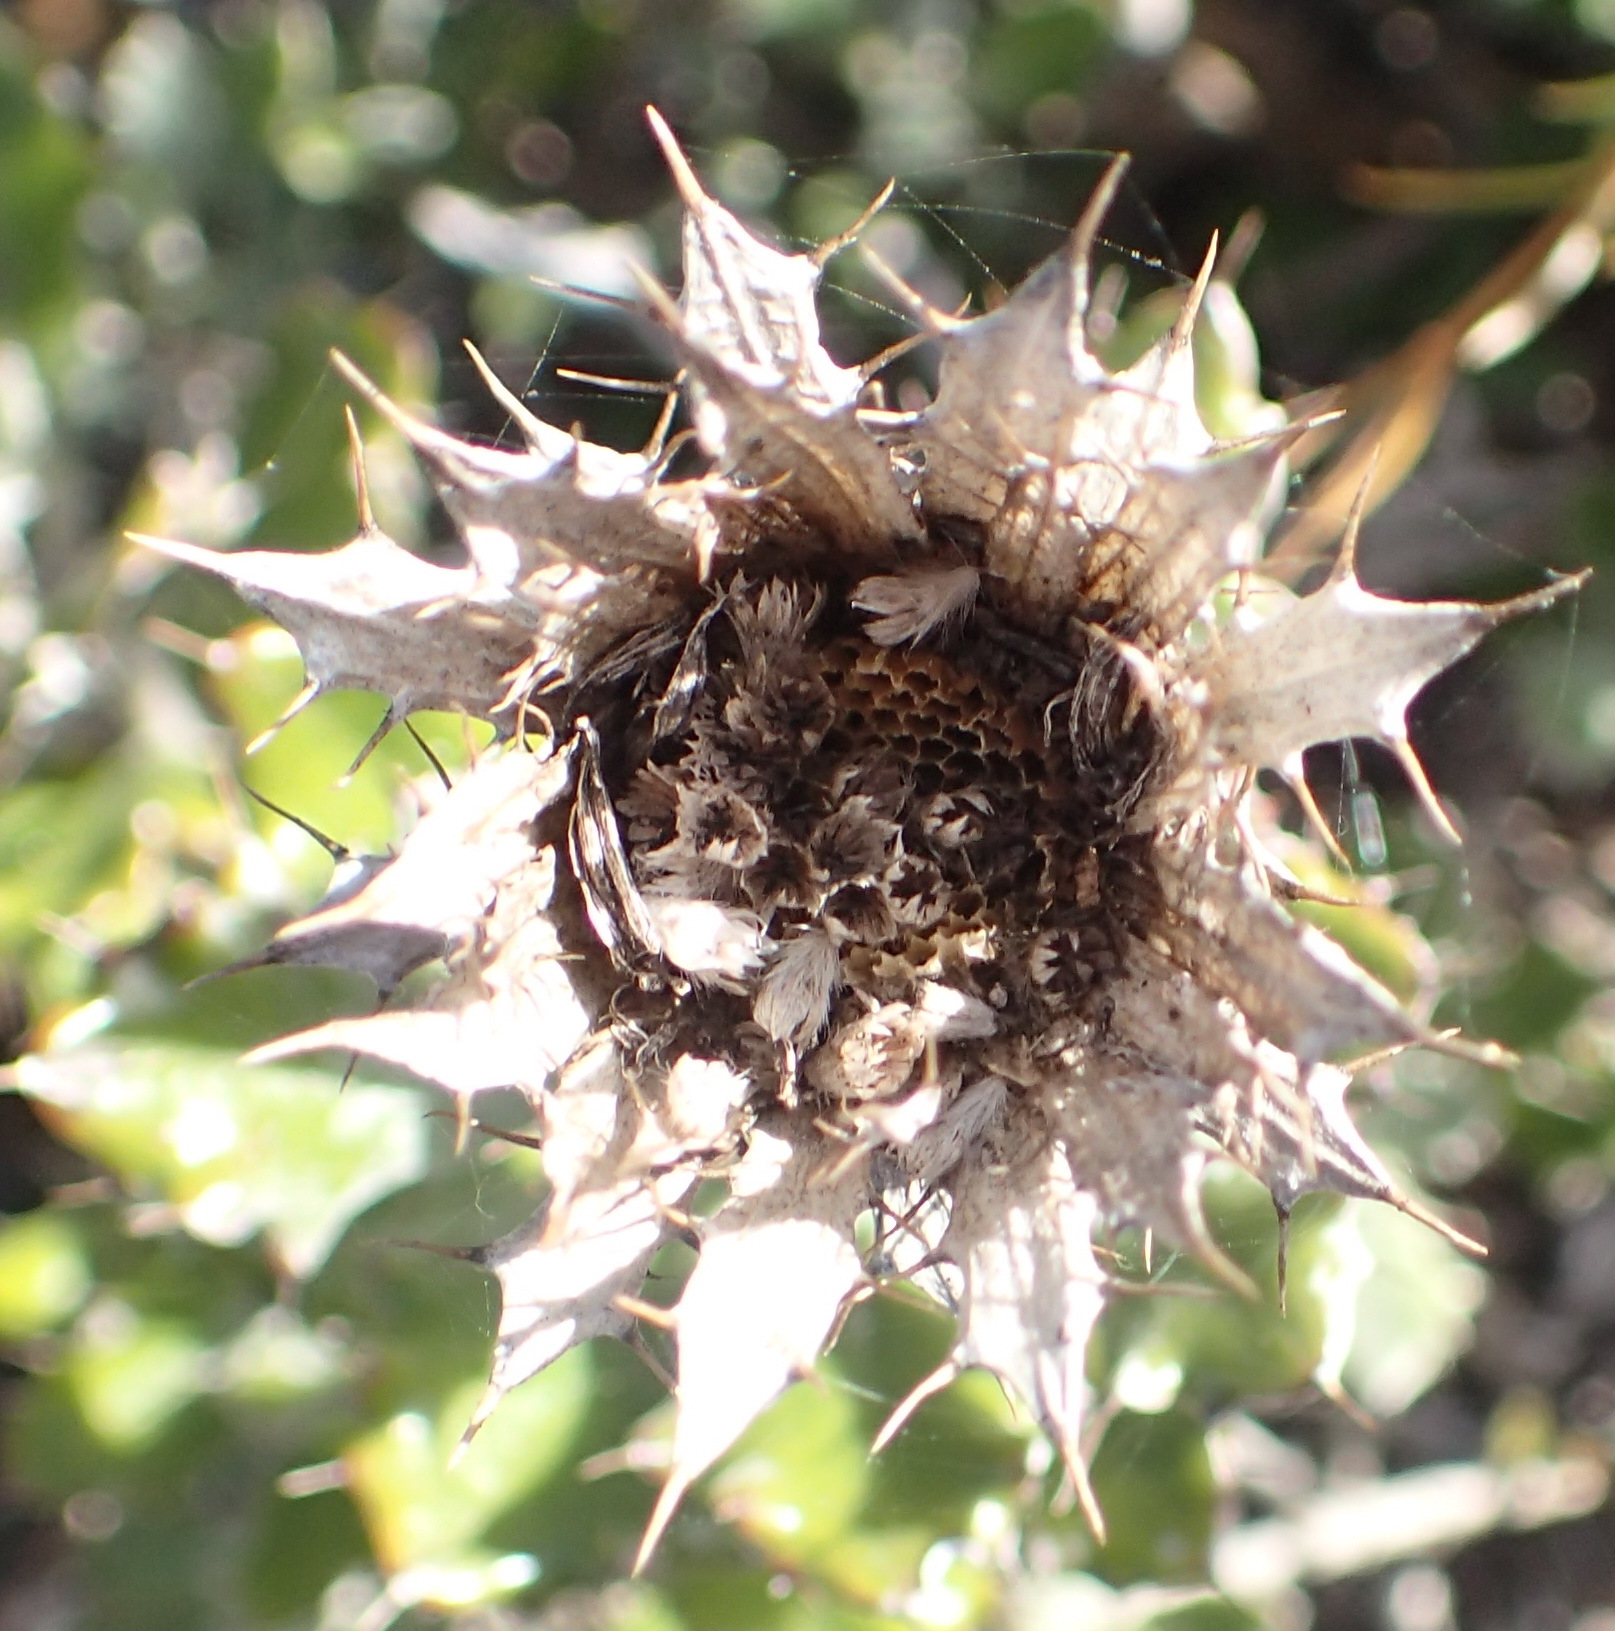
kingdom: Plantae
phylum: Tracheophyta
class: Magnoliopsida
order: Asterales
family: Asteraceae
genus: Berkheya
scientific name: Berkheya coriacea
